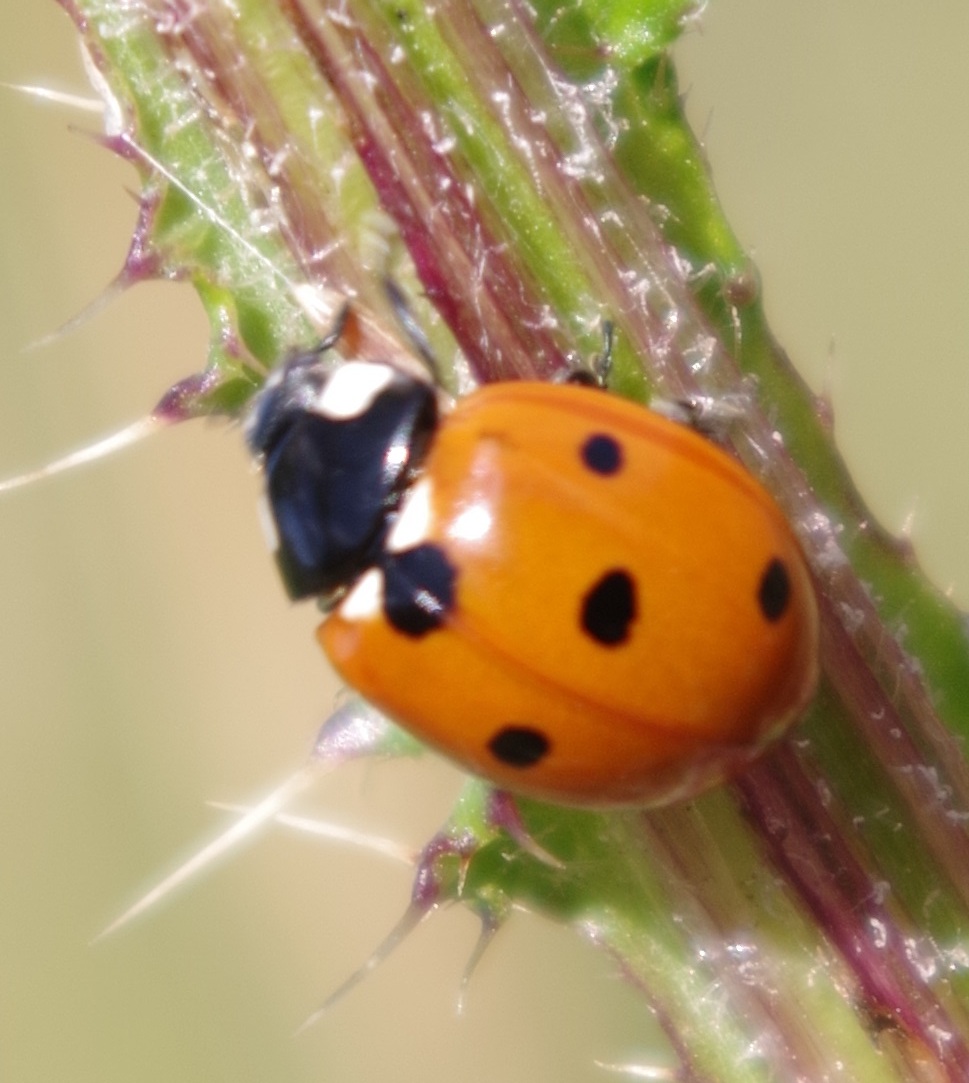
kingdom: Animalia
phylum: Arthropoda
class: Insecta
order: Coleoptera
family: Coccinellidae
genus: Coccinella
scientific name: Coccinella septempunctata
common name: Sevenspotted lady beetle
